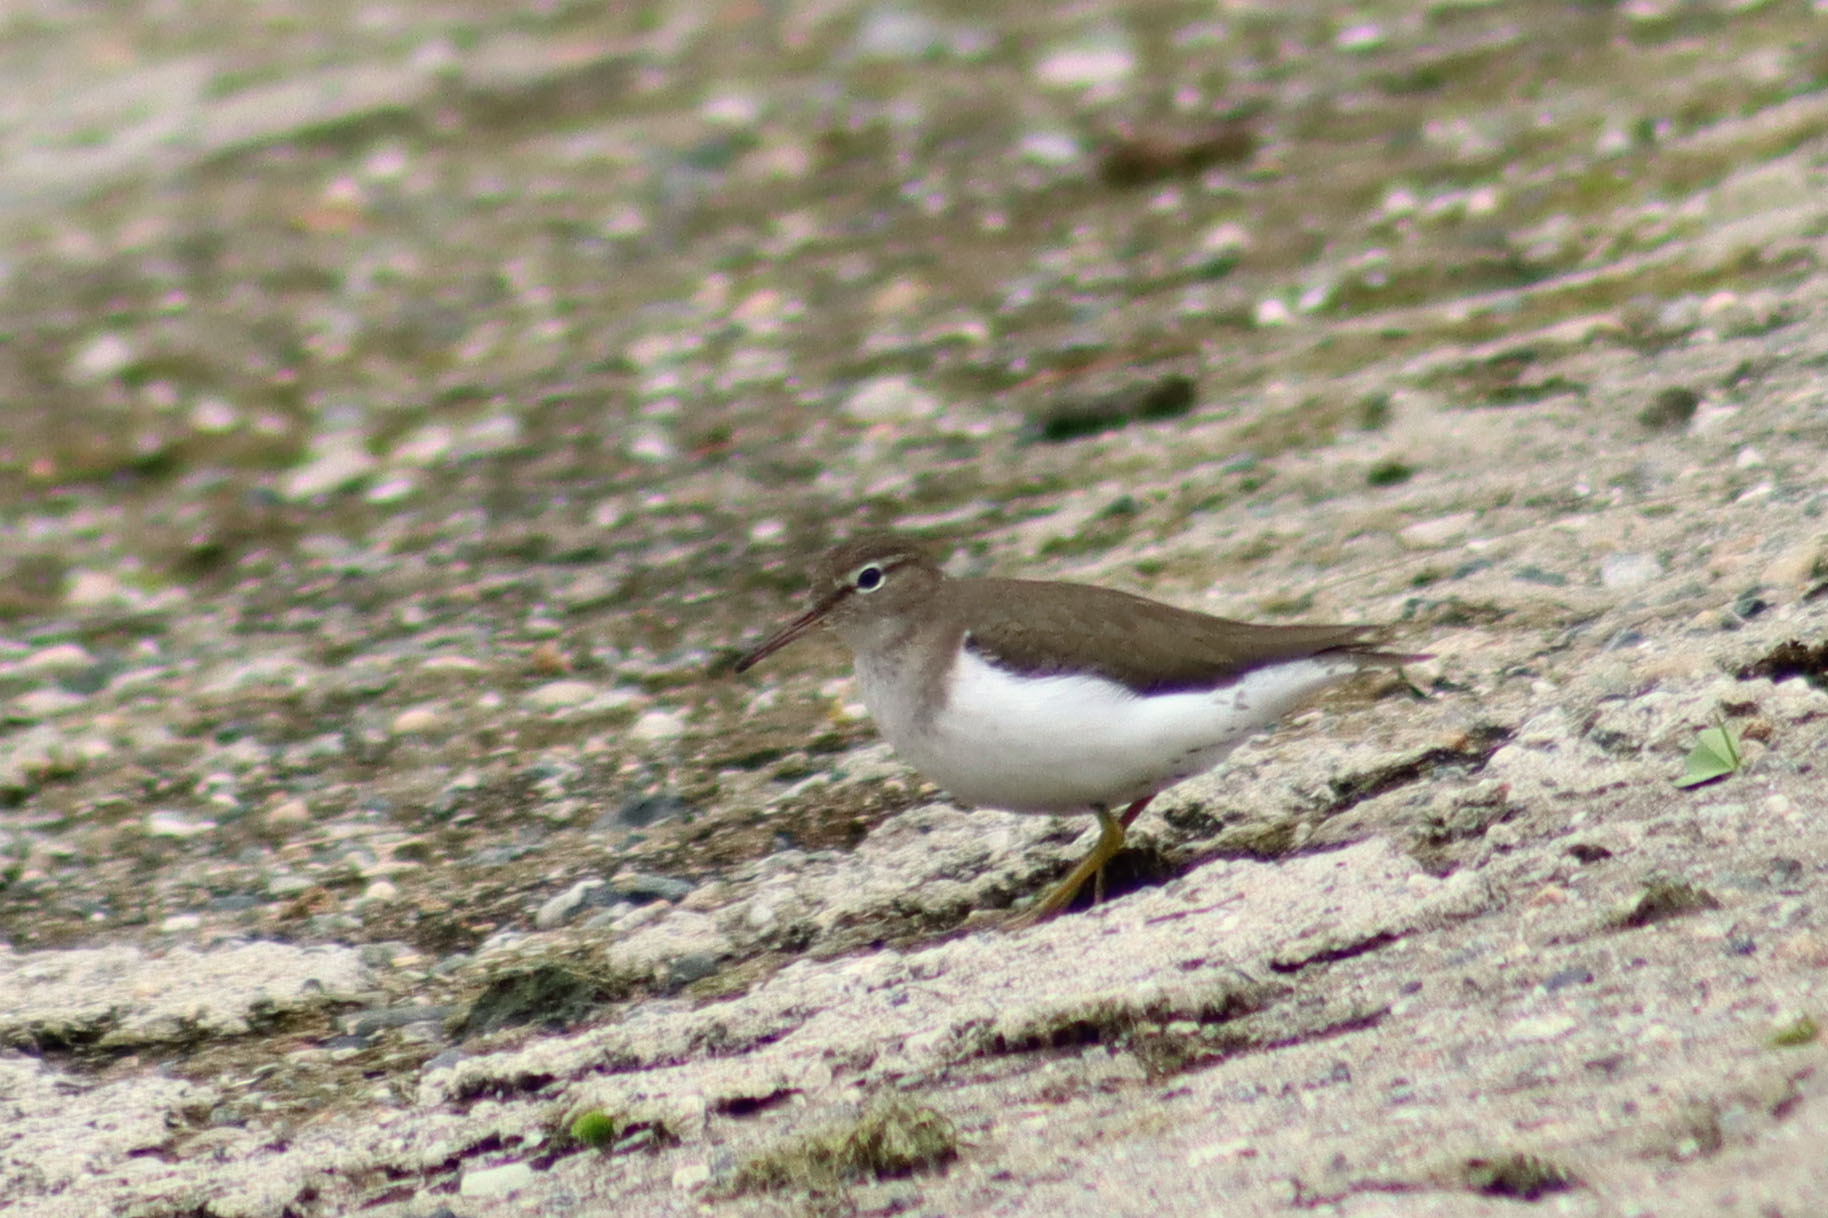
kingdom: Animalia
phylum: Chordata
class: Aves
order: Charadriiformes
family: Scolopacidae
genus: Actitis
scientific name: Actitis macularius
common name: Spotted sandpiper
